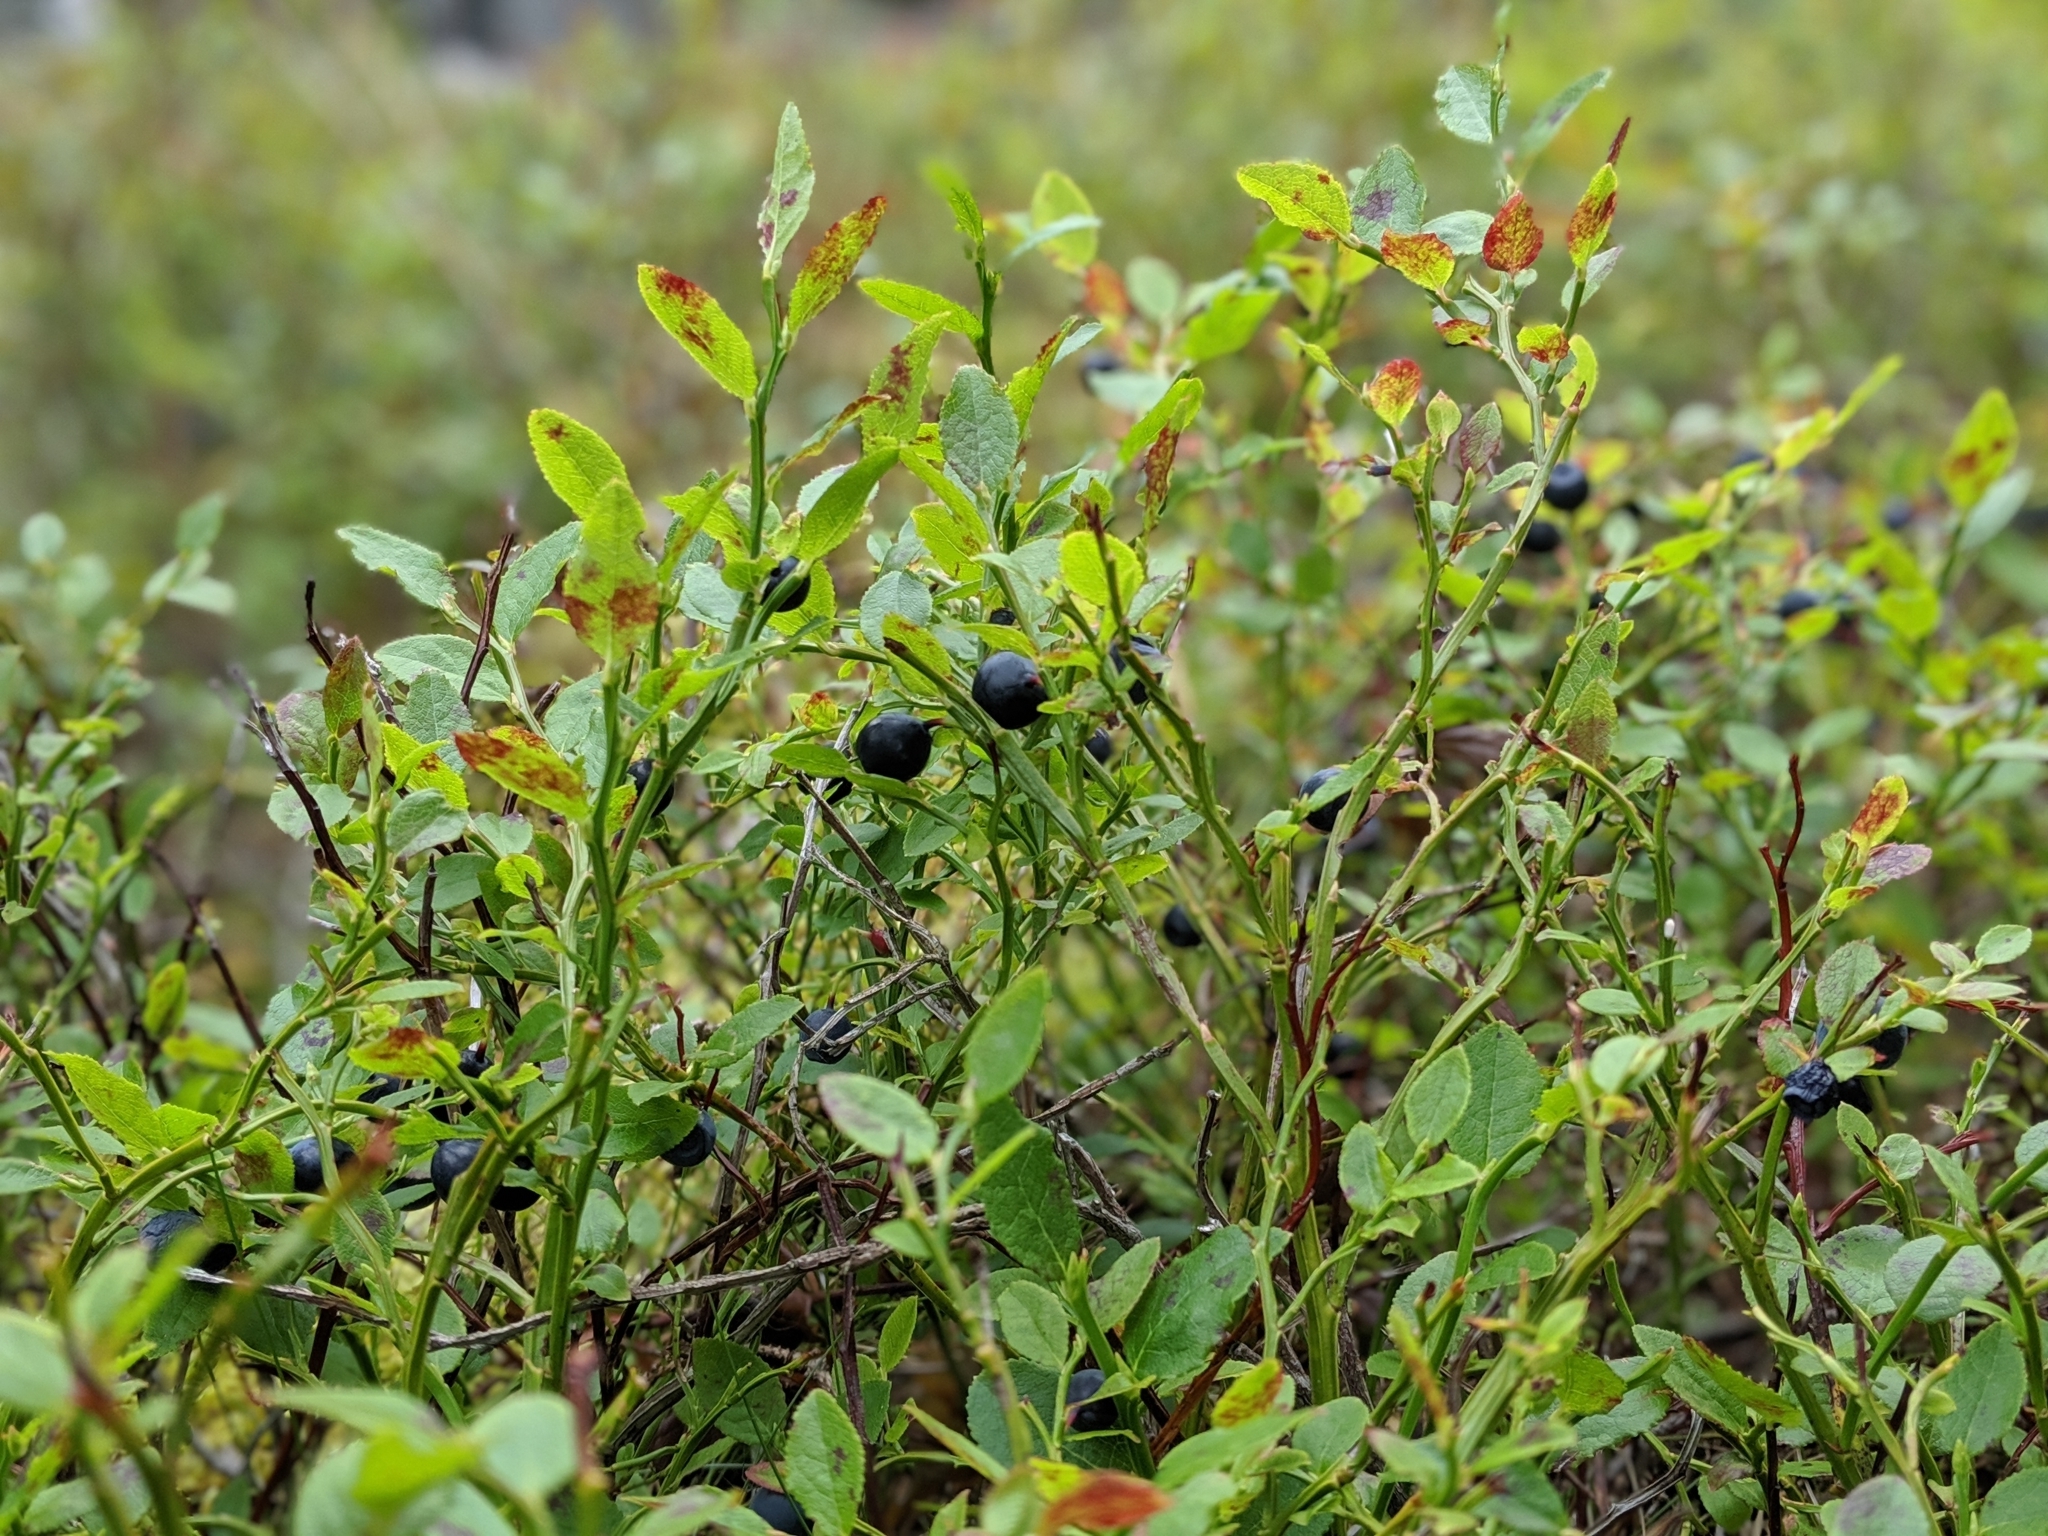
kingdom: Plantae
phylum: Tracheophyta
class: Magnoliopsida
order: Ericales
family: Ericaceae
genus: Vaccinium
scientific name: Vaccinium myrtillus
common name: Bilberry
